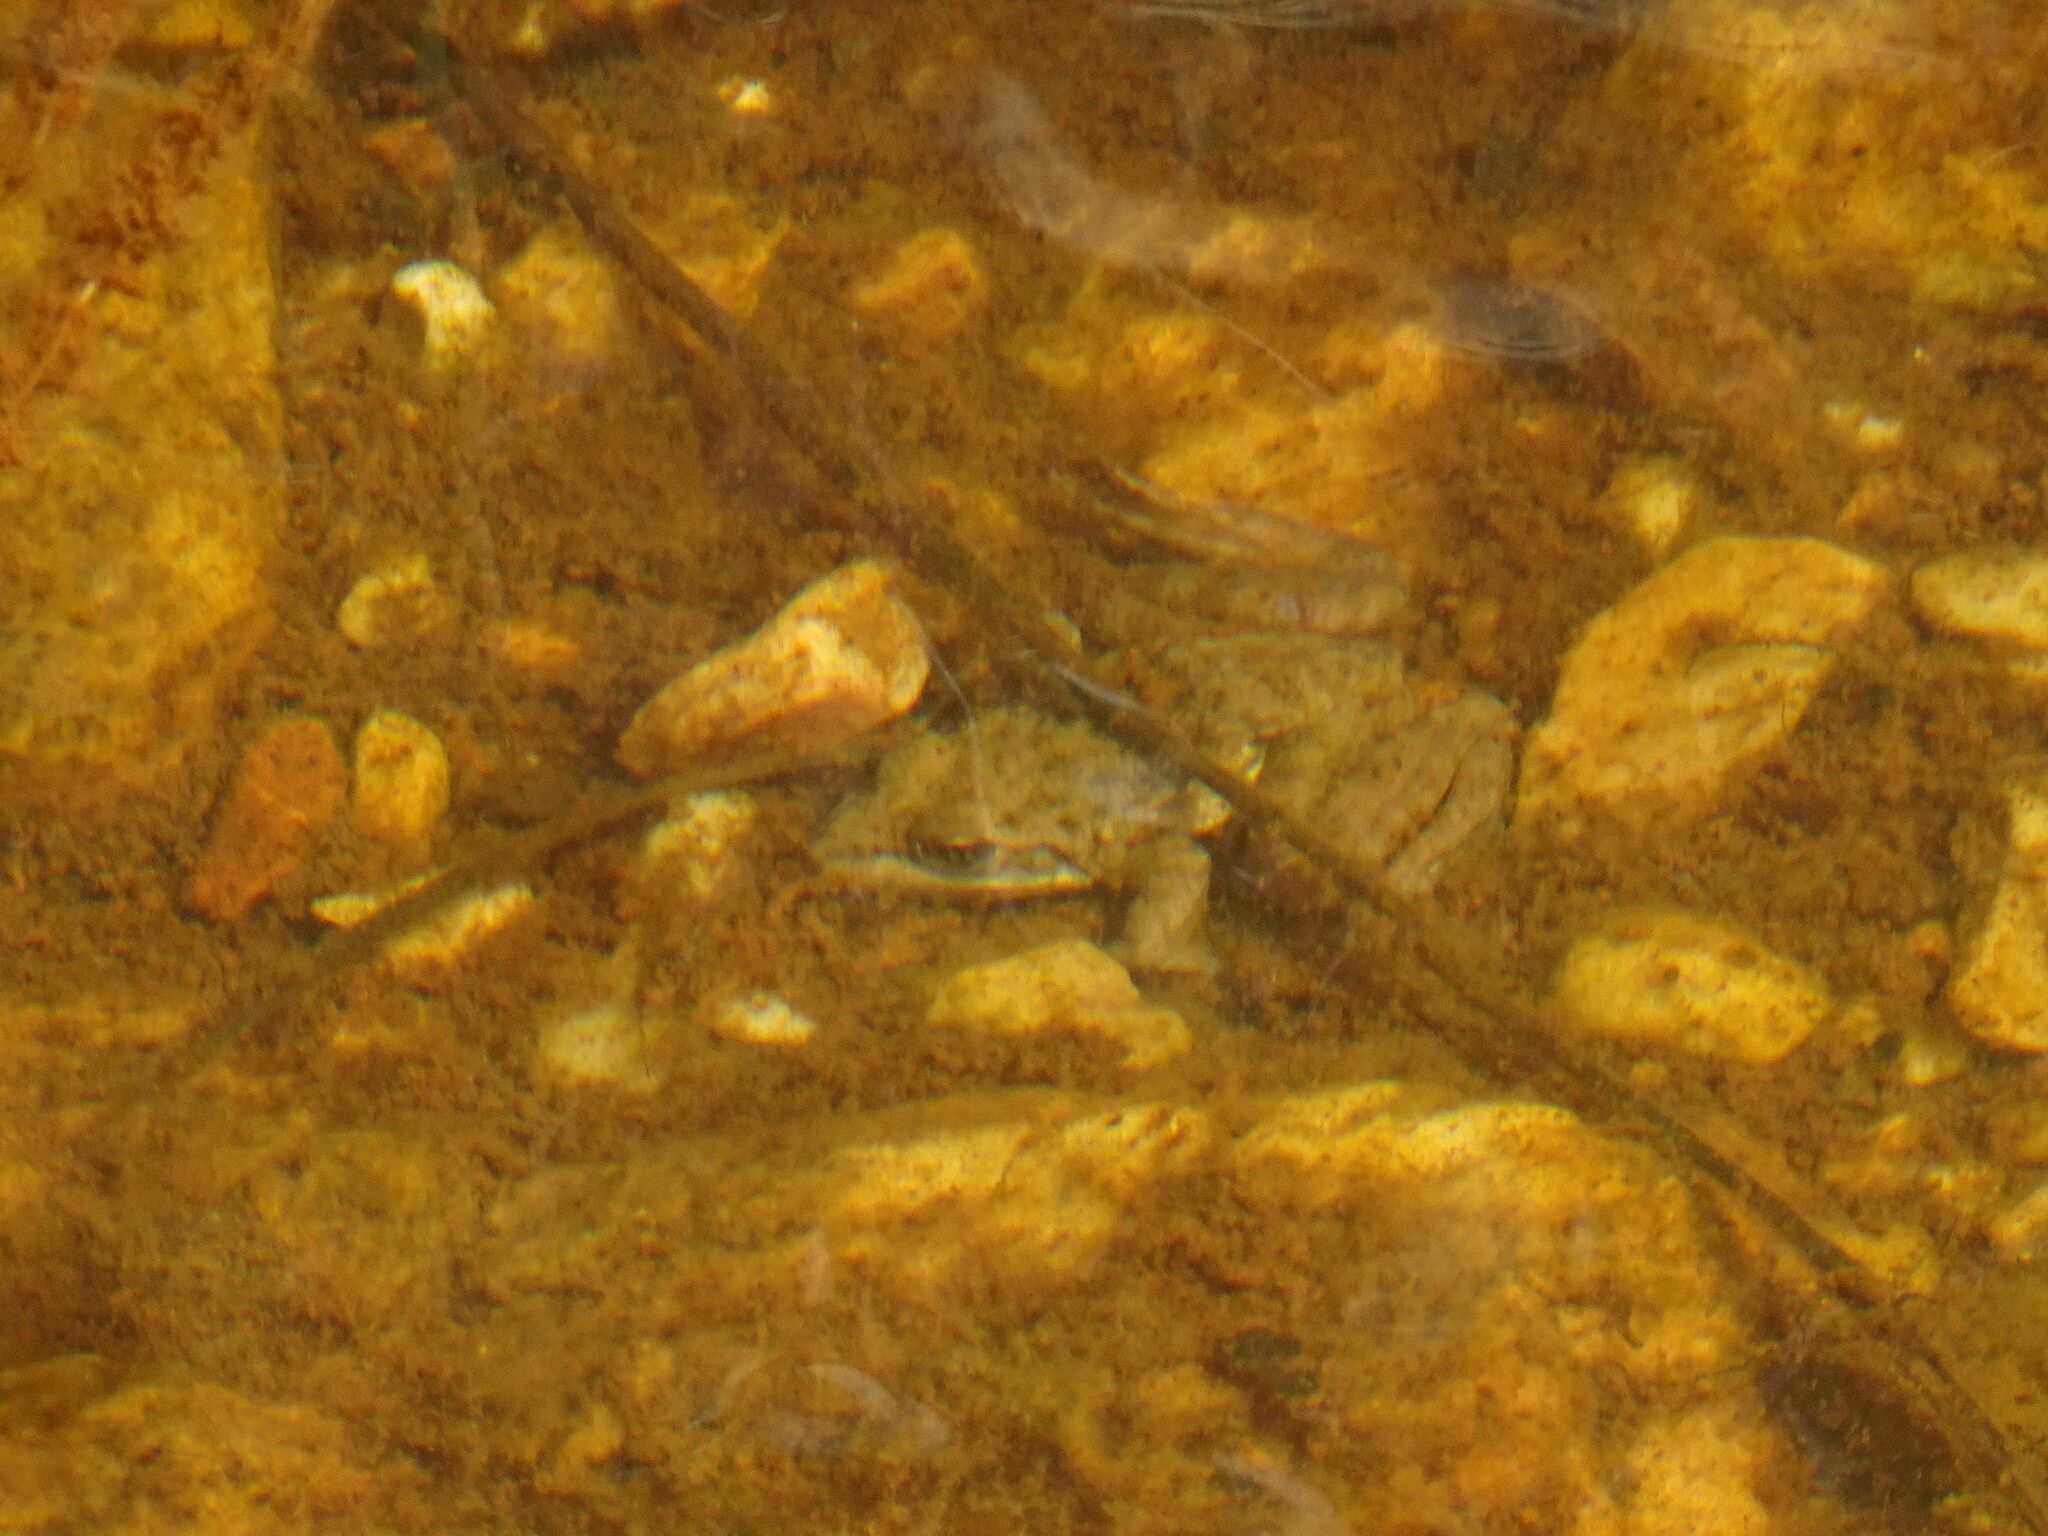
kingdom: Animalia
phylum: Chordata
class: Amphibia
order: Anura
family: Pyxicephalidae
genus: Amietia
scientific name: Amietia fuscigula
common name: Cape rana
